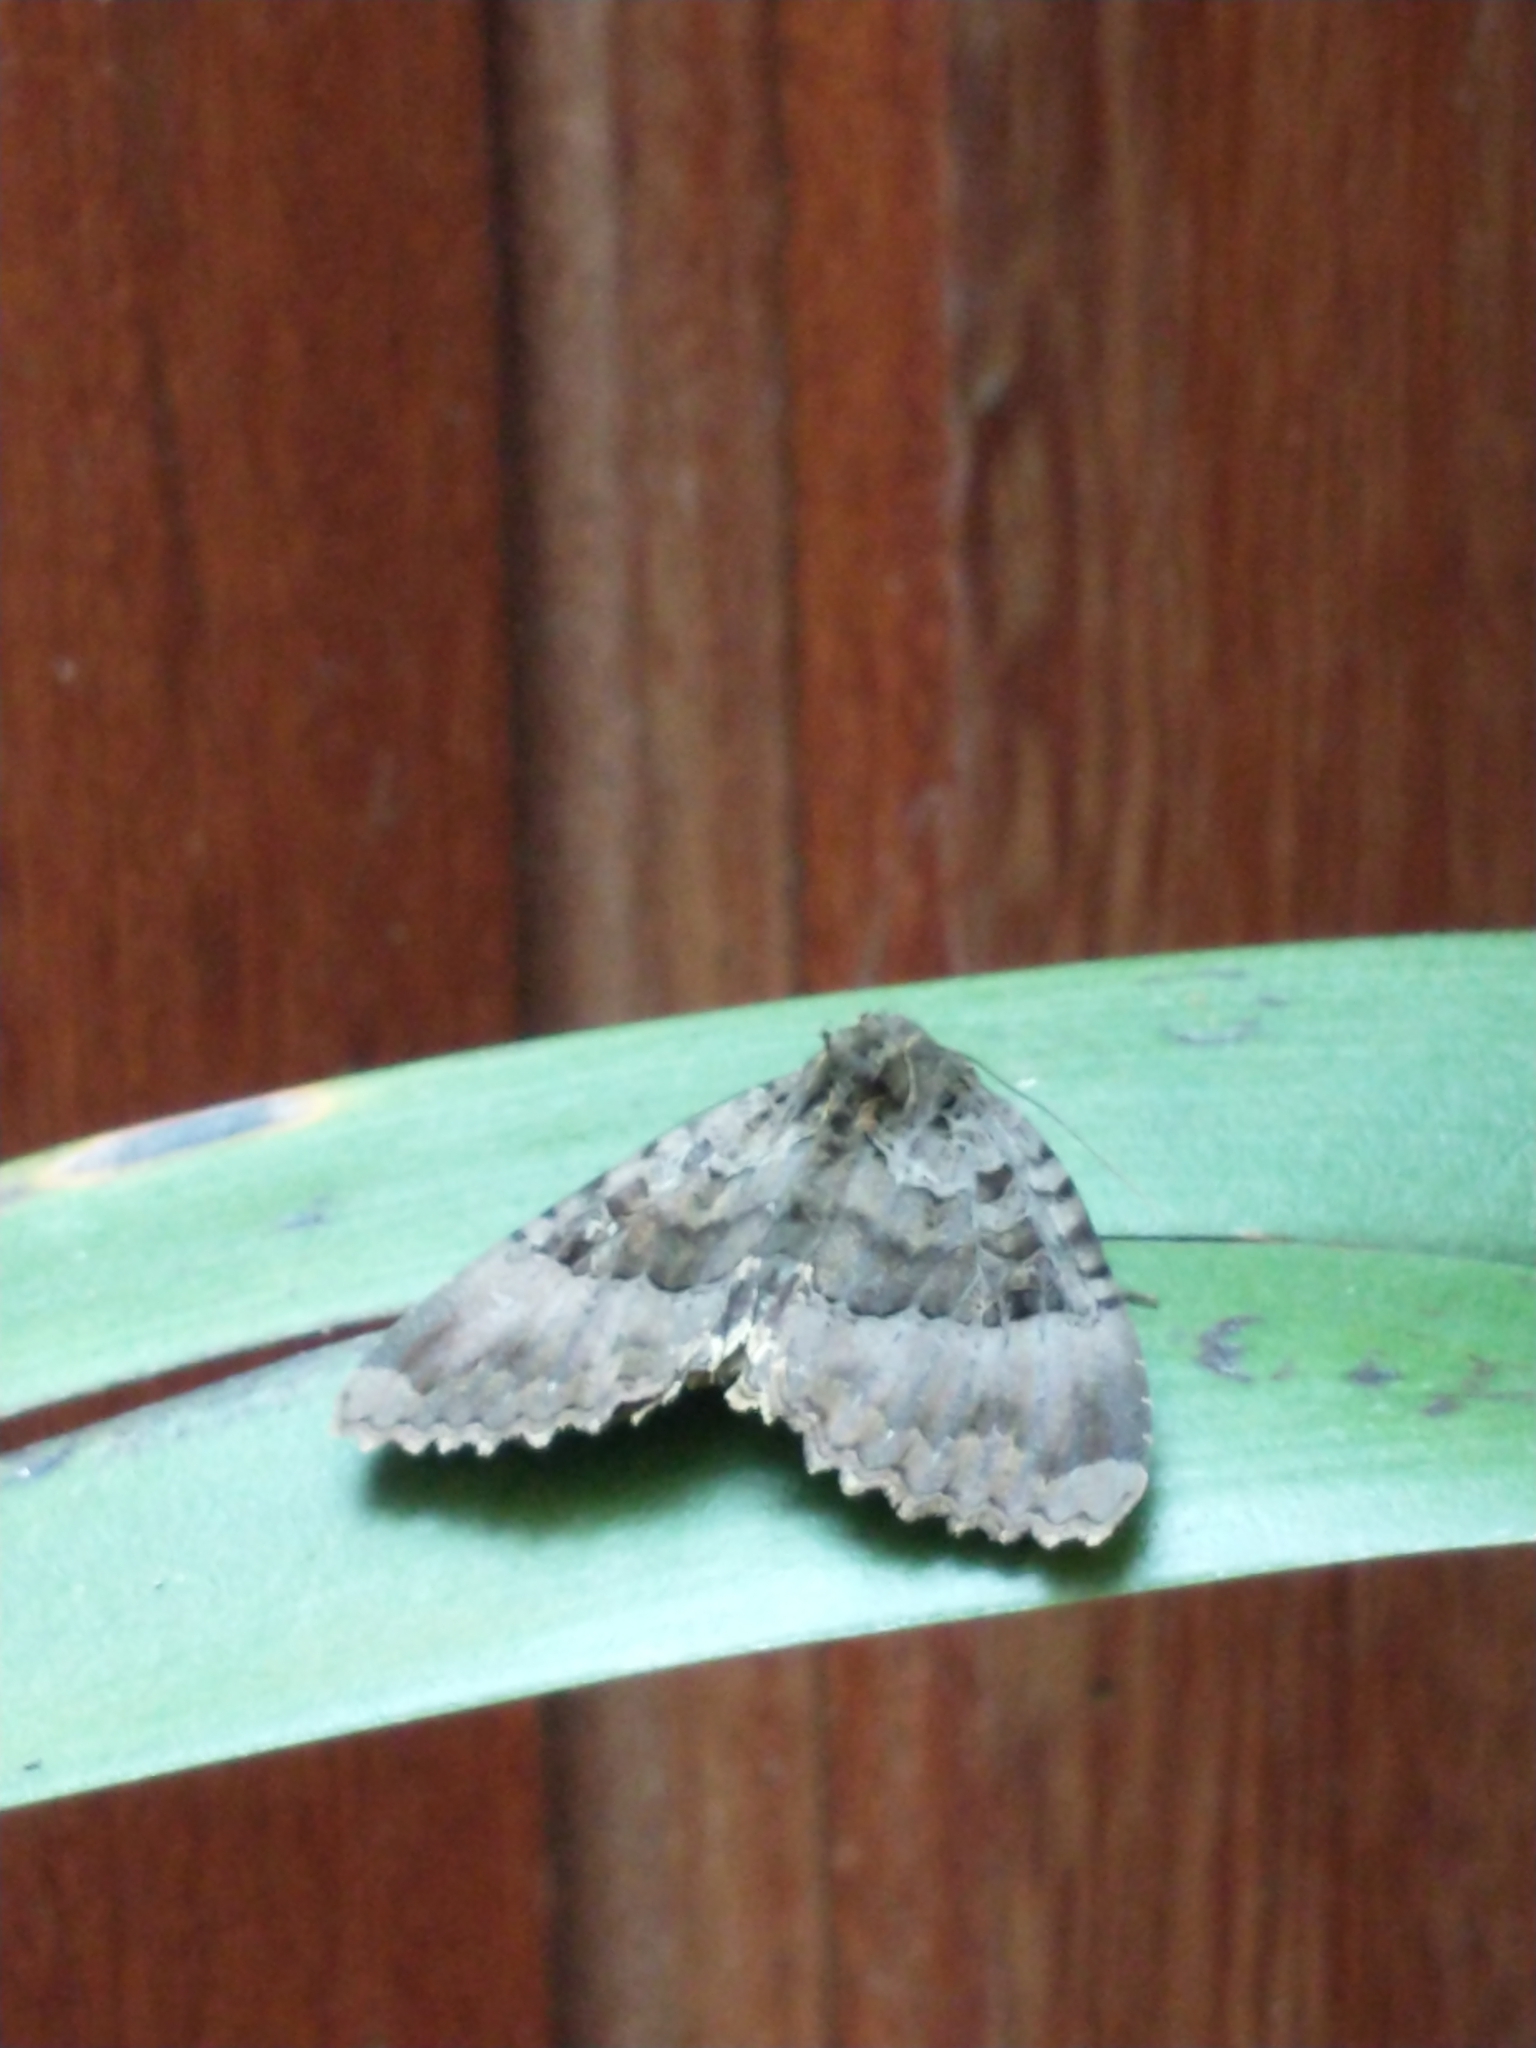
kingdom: Animalia
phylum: Arthropoda
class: Insecta
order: Lepidoptera
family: Noctuidae
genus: Mormo
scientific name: Mormo maura
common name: Old lady
